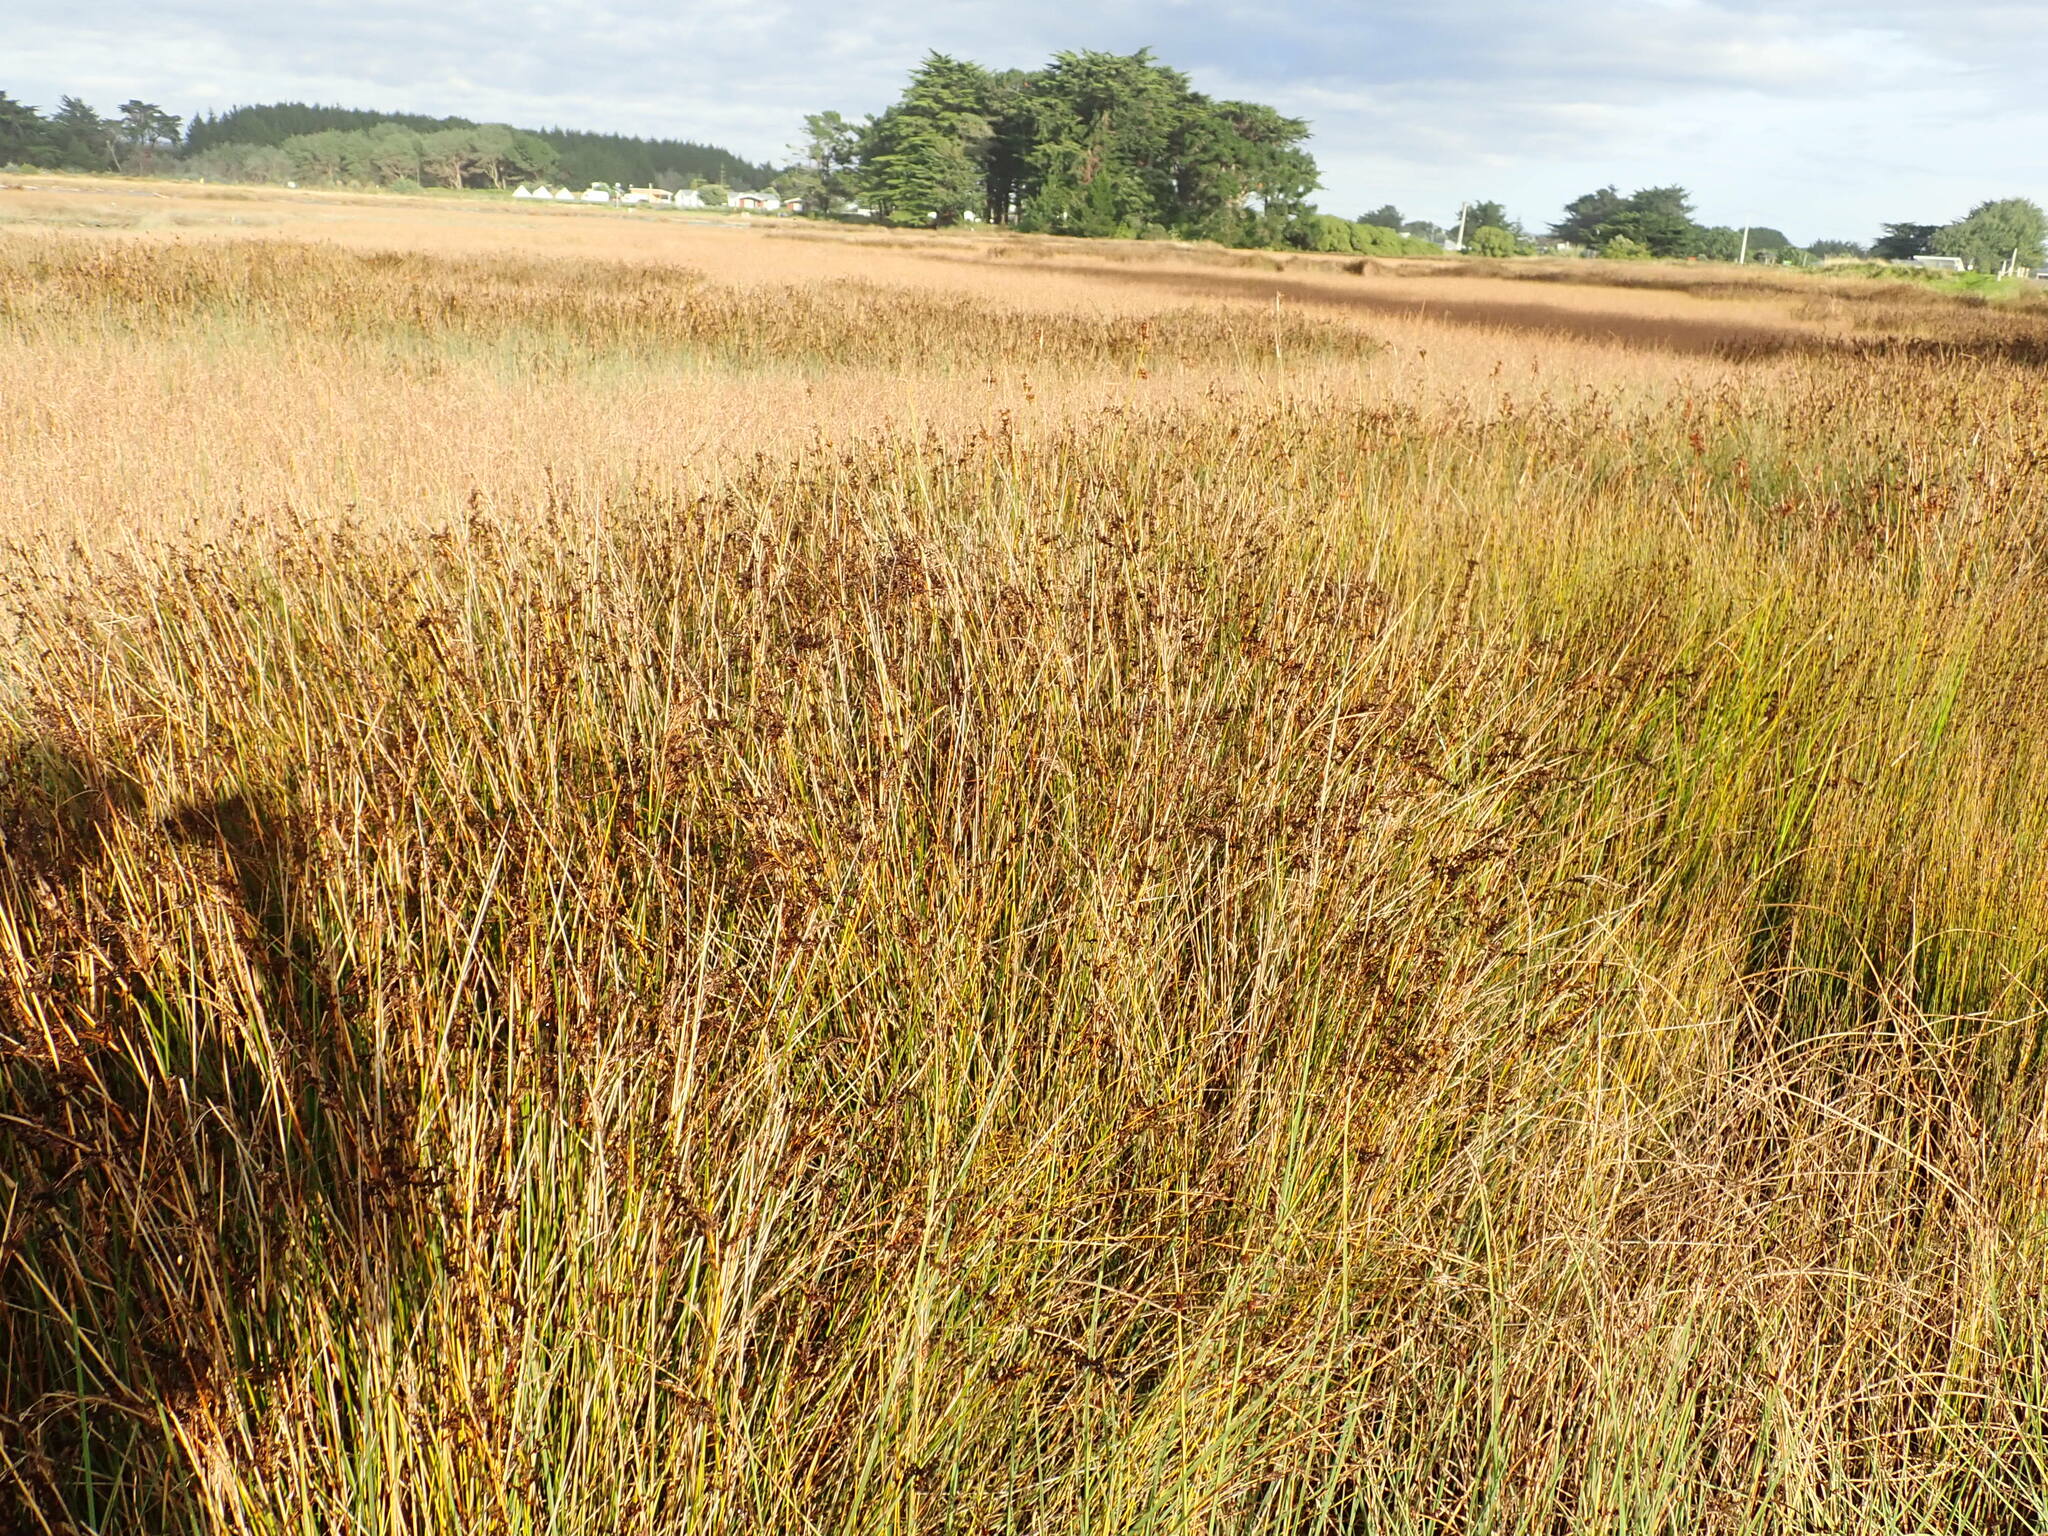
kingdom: Plantae
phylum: Tracheophyta
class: Liliopsida
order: Poales
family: Juncaceae
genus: Juncus
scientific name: Juncus kraussii
